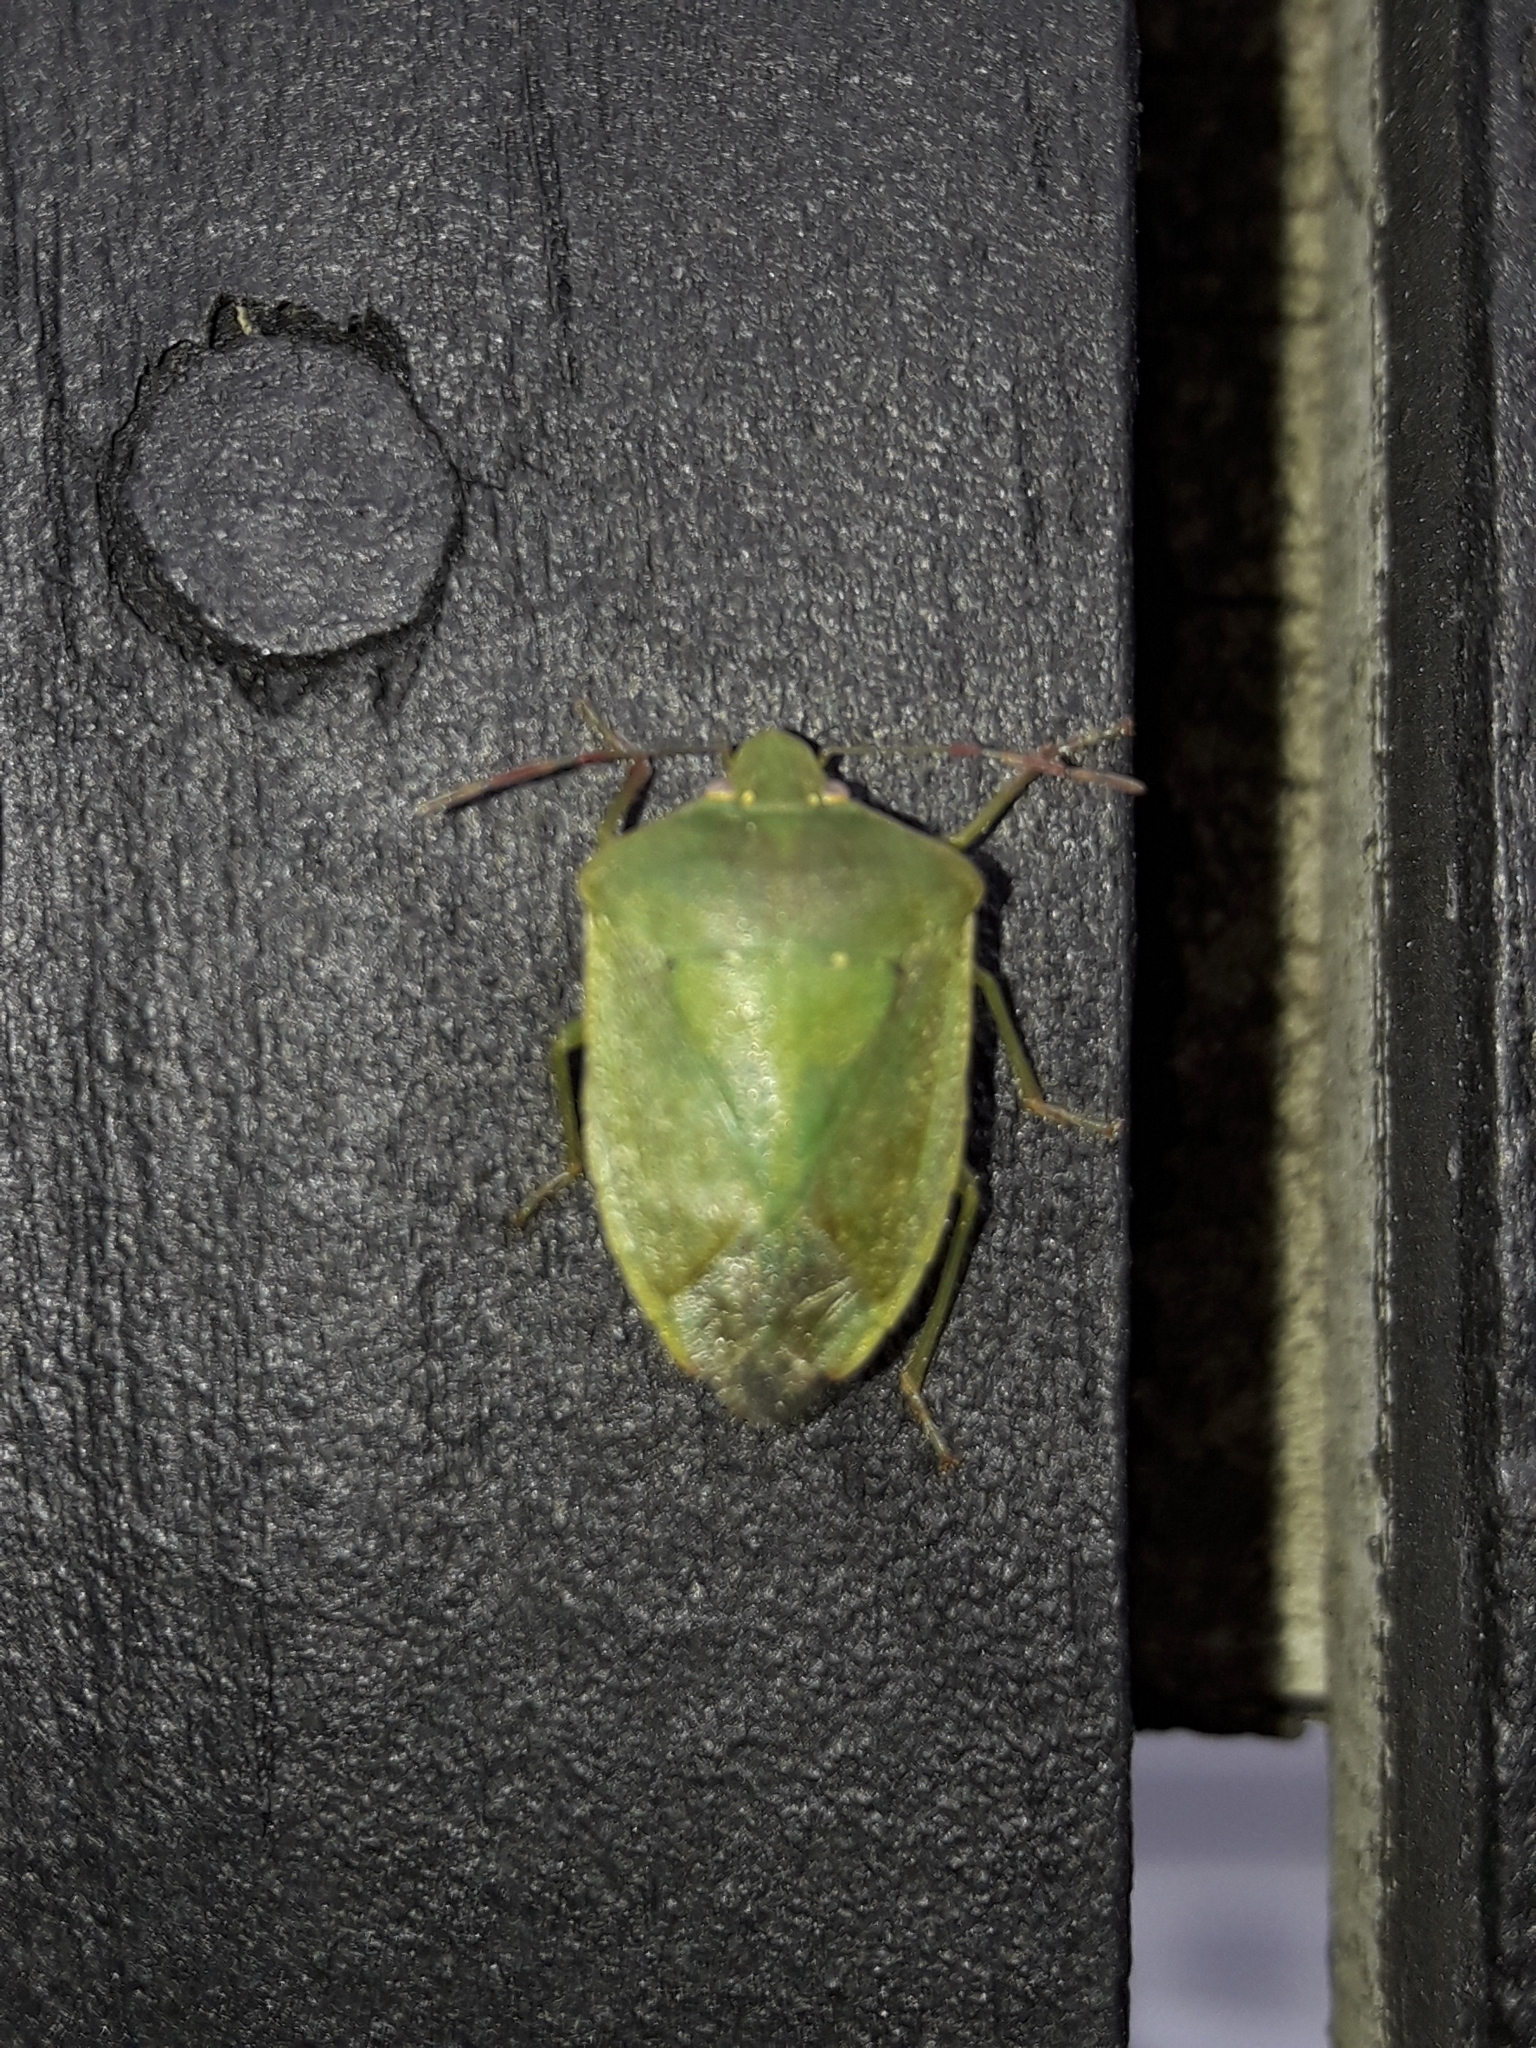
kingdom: Animalia
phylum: Arthropoda
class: Insecta
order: Hemiptera
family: Pentatomidae
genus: Nezara
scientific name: Nezara viridula
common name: Southern green stink bug
